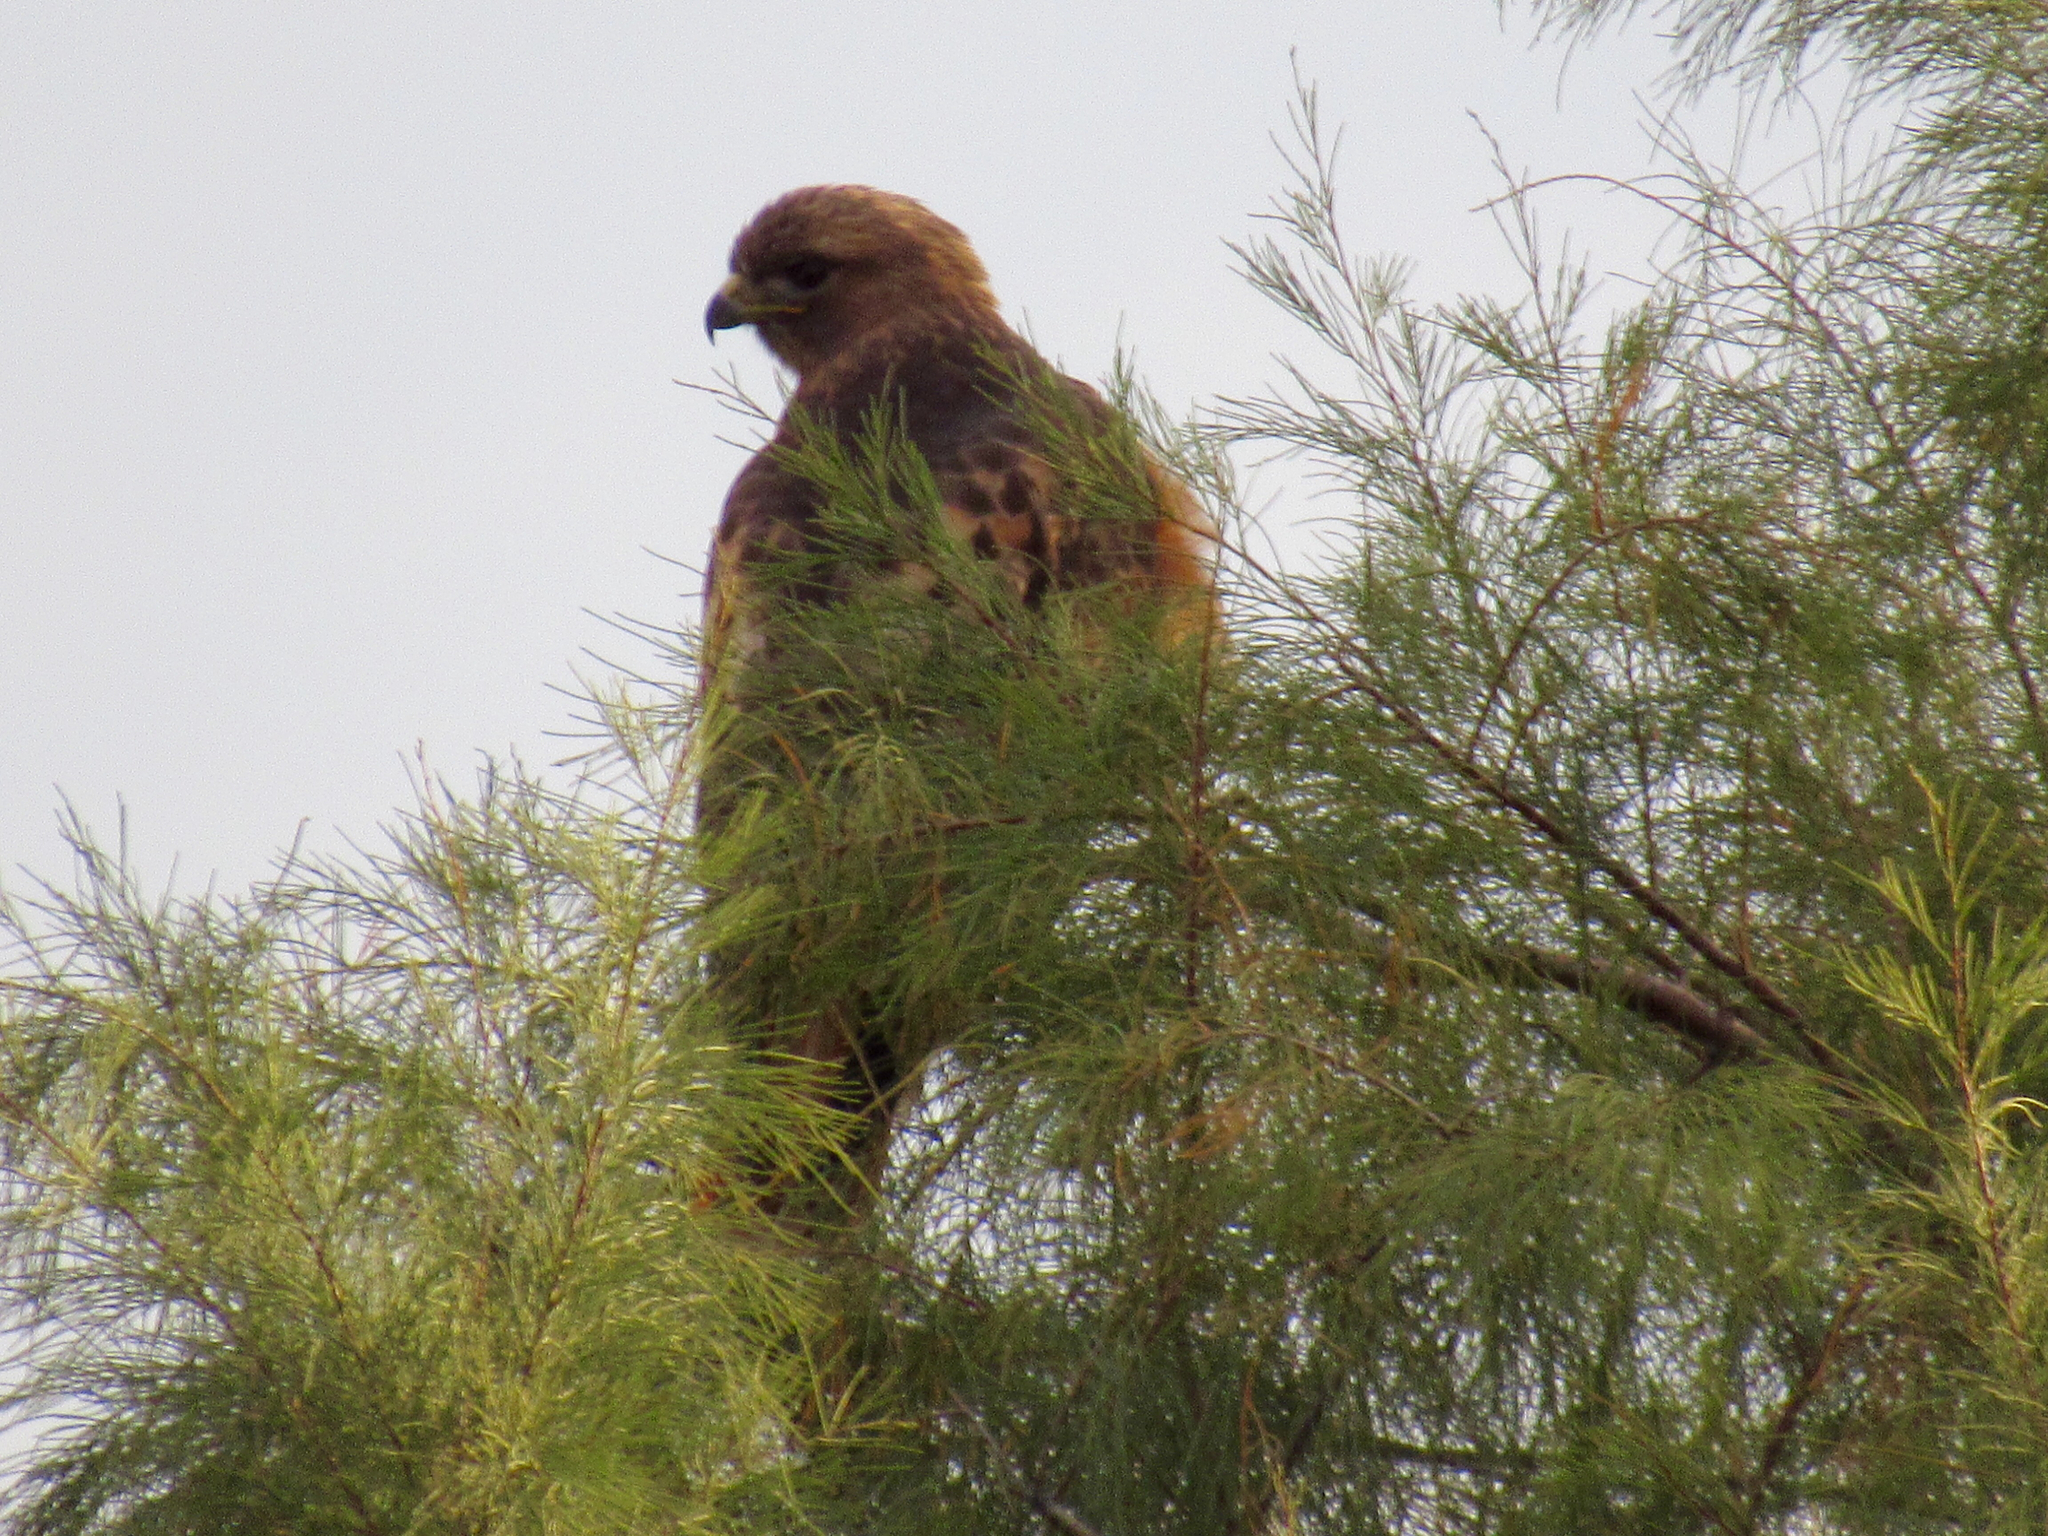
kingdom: Animalia
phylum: Chordata
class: Aves
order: Accipitriformes
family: Accipitridae
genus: Buteo
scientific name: Buteo jamaicensis
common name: Red-tailed hawk
